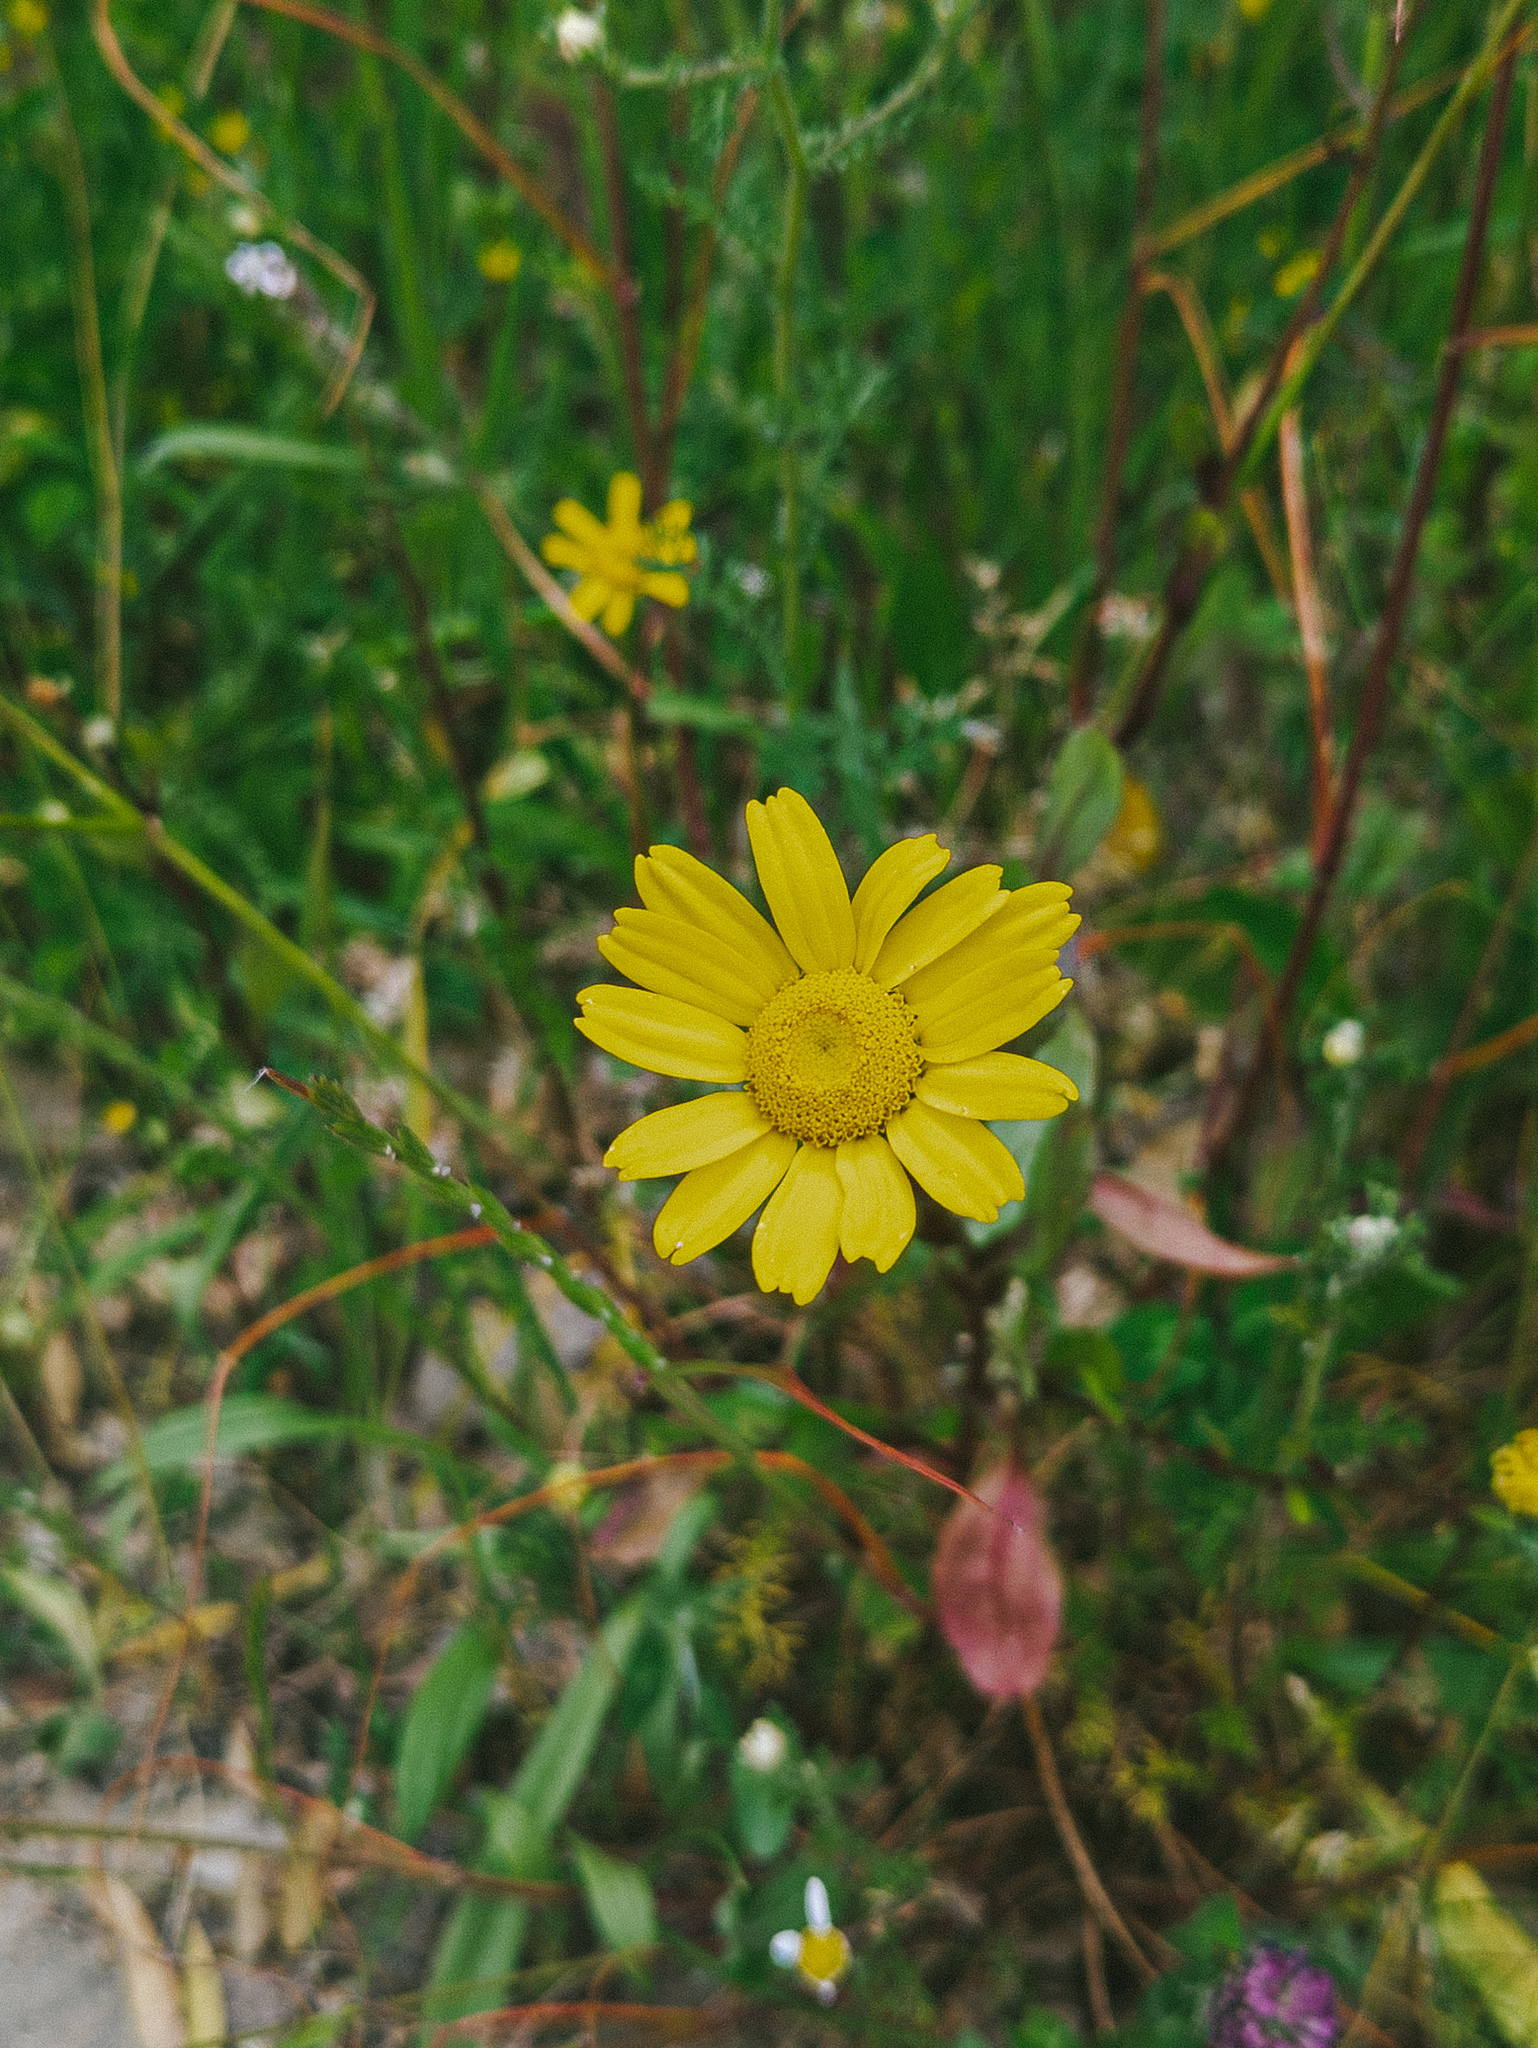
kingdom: Plantae
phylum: Tracheophyta
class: Magnoliopsida
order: Asterales
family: Asteraceae
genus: Coleostephus
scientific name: Coleostephus myconis
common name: Mediterranean marigold
